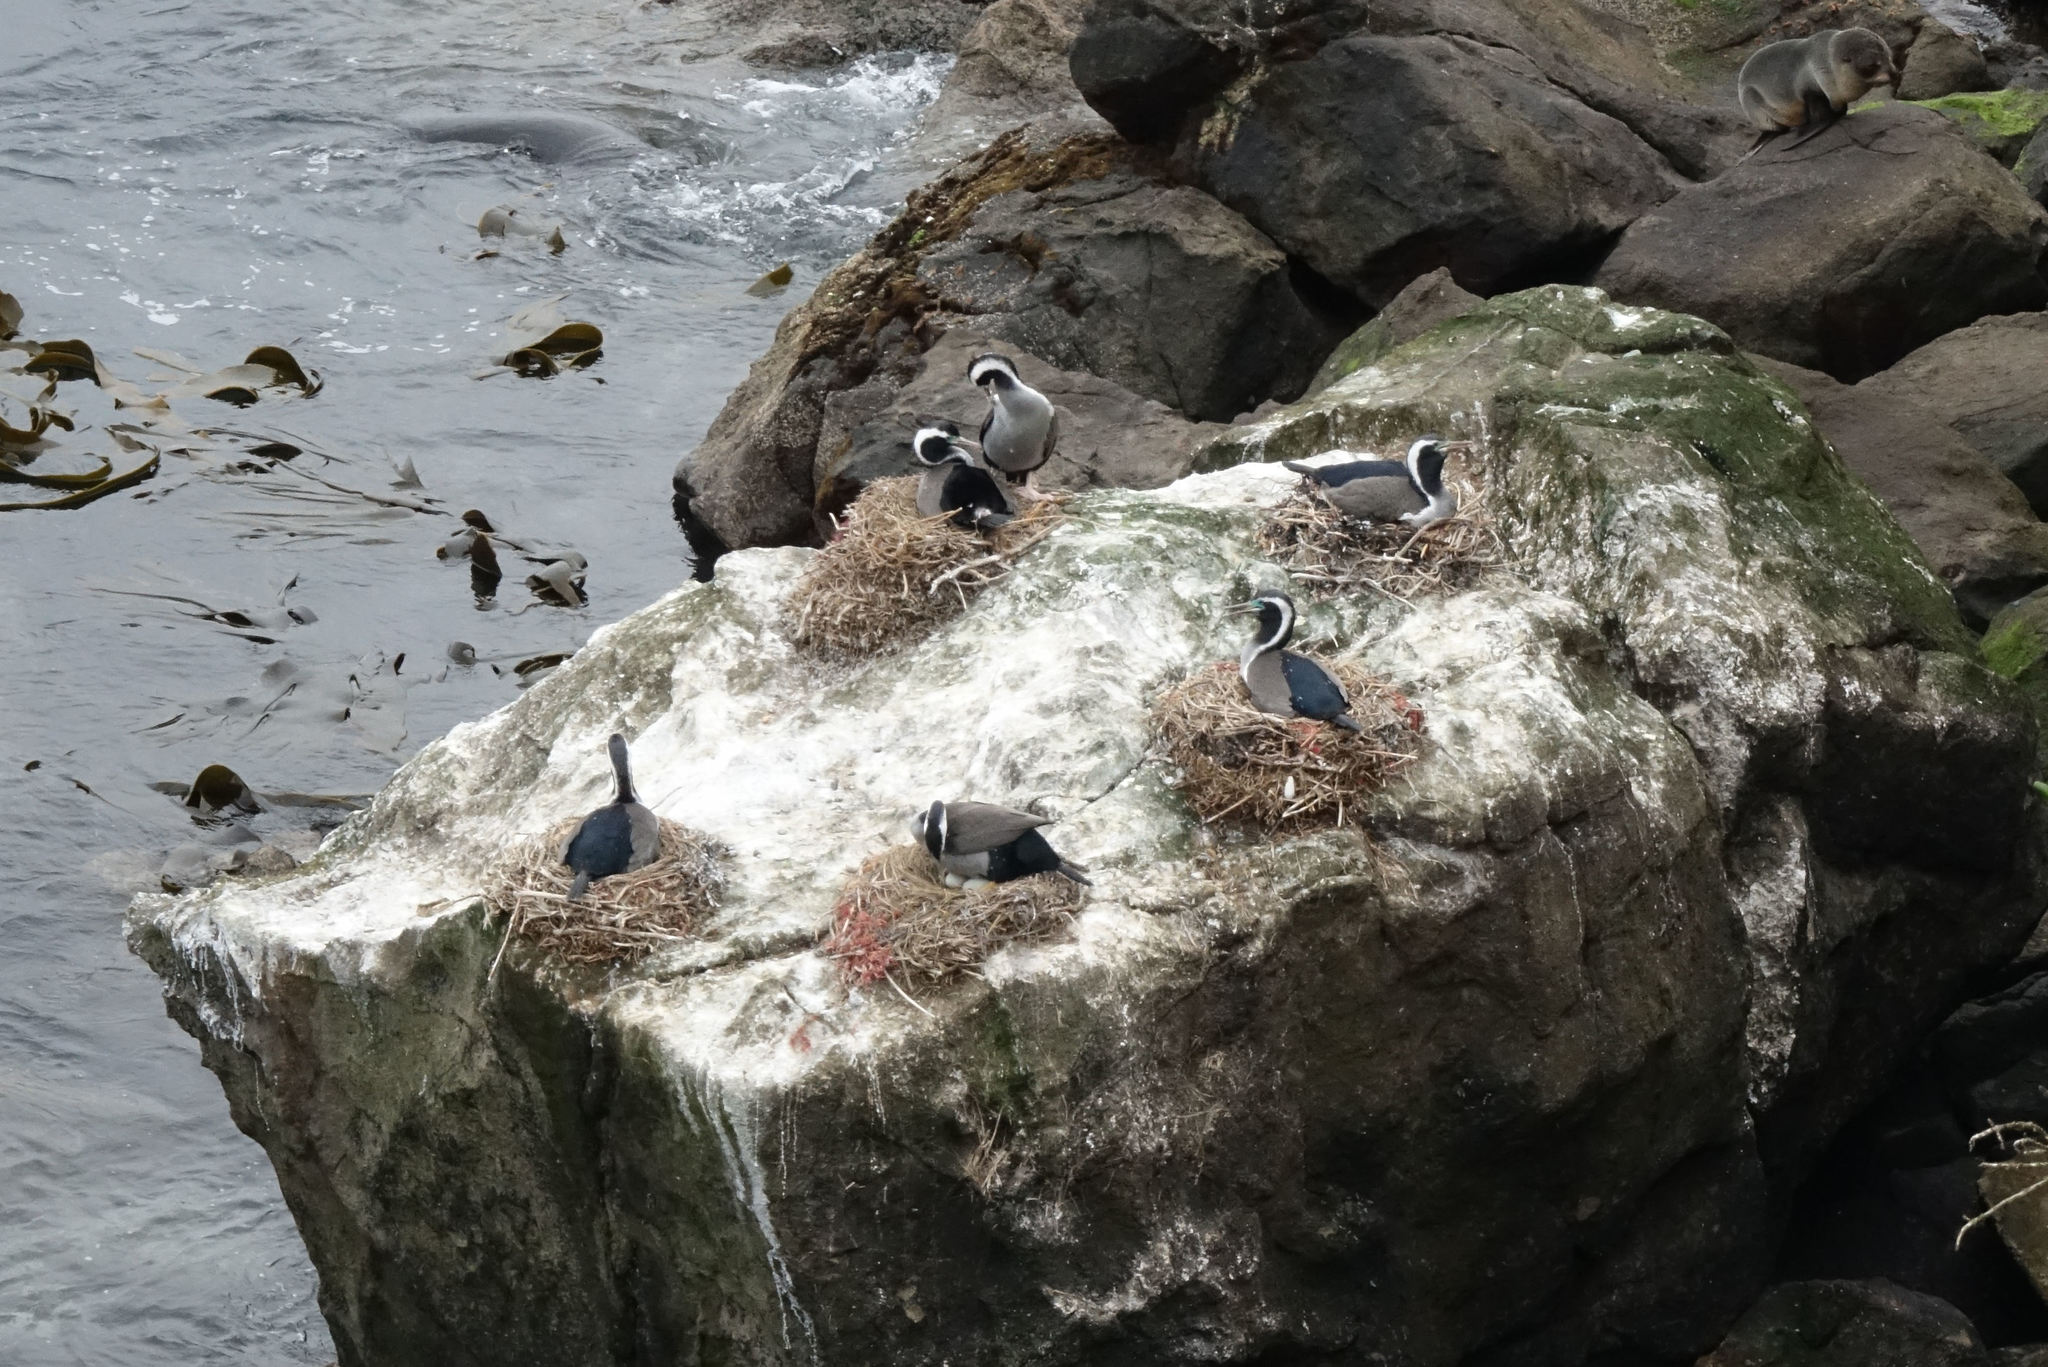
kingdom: Animalia
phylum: Chordata
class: Aves
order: Suliformes
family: Phalacrocoracidae
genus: Phalacrocorax
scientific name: Phalacrocorax punctatus
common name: Spotted shag
